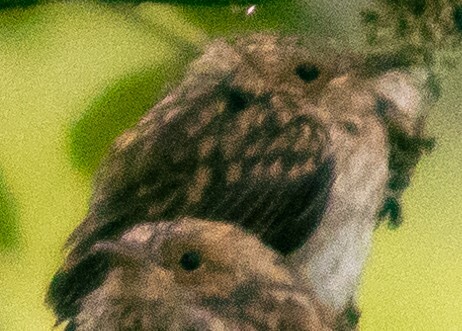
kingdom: Animalia
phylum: Chordata
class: Aves
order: Passeriformes
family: Muscicapidae
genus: Muscicapa
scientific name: Muscicapa striata
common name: Spotted flycatcher
